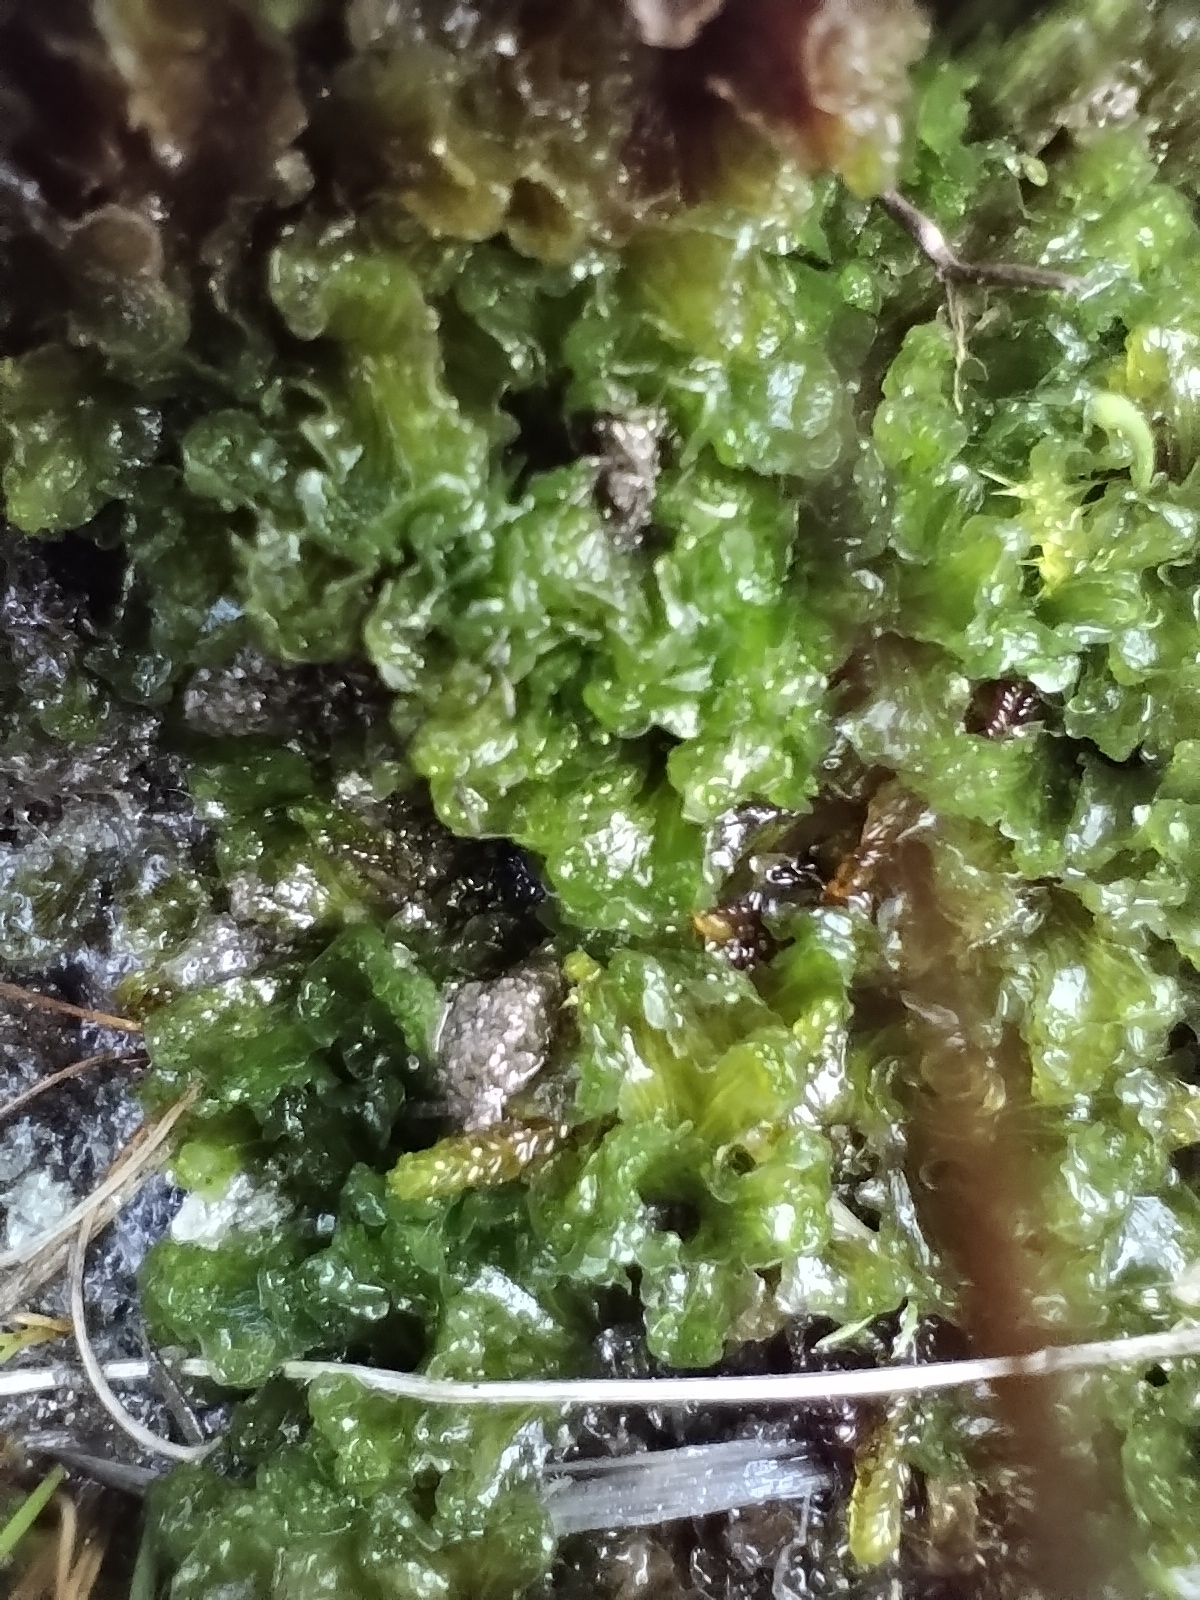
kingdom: Plantae
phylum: Marchantiophyta
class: Marchantiopsida
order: Blasiales
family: Blasiaceae
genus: Blasia
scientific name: Blasia pusilla
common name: Common kettlewort
